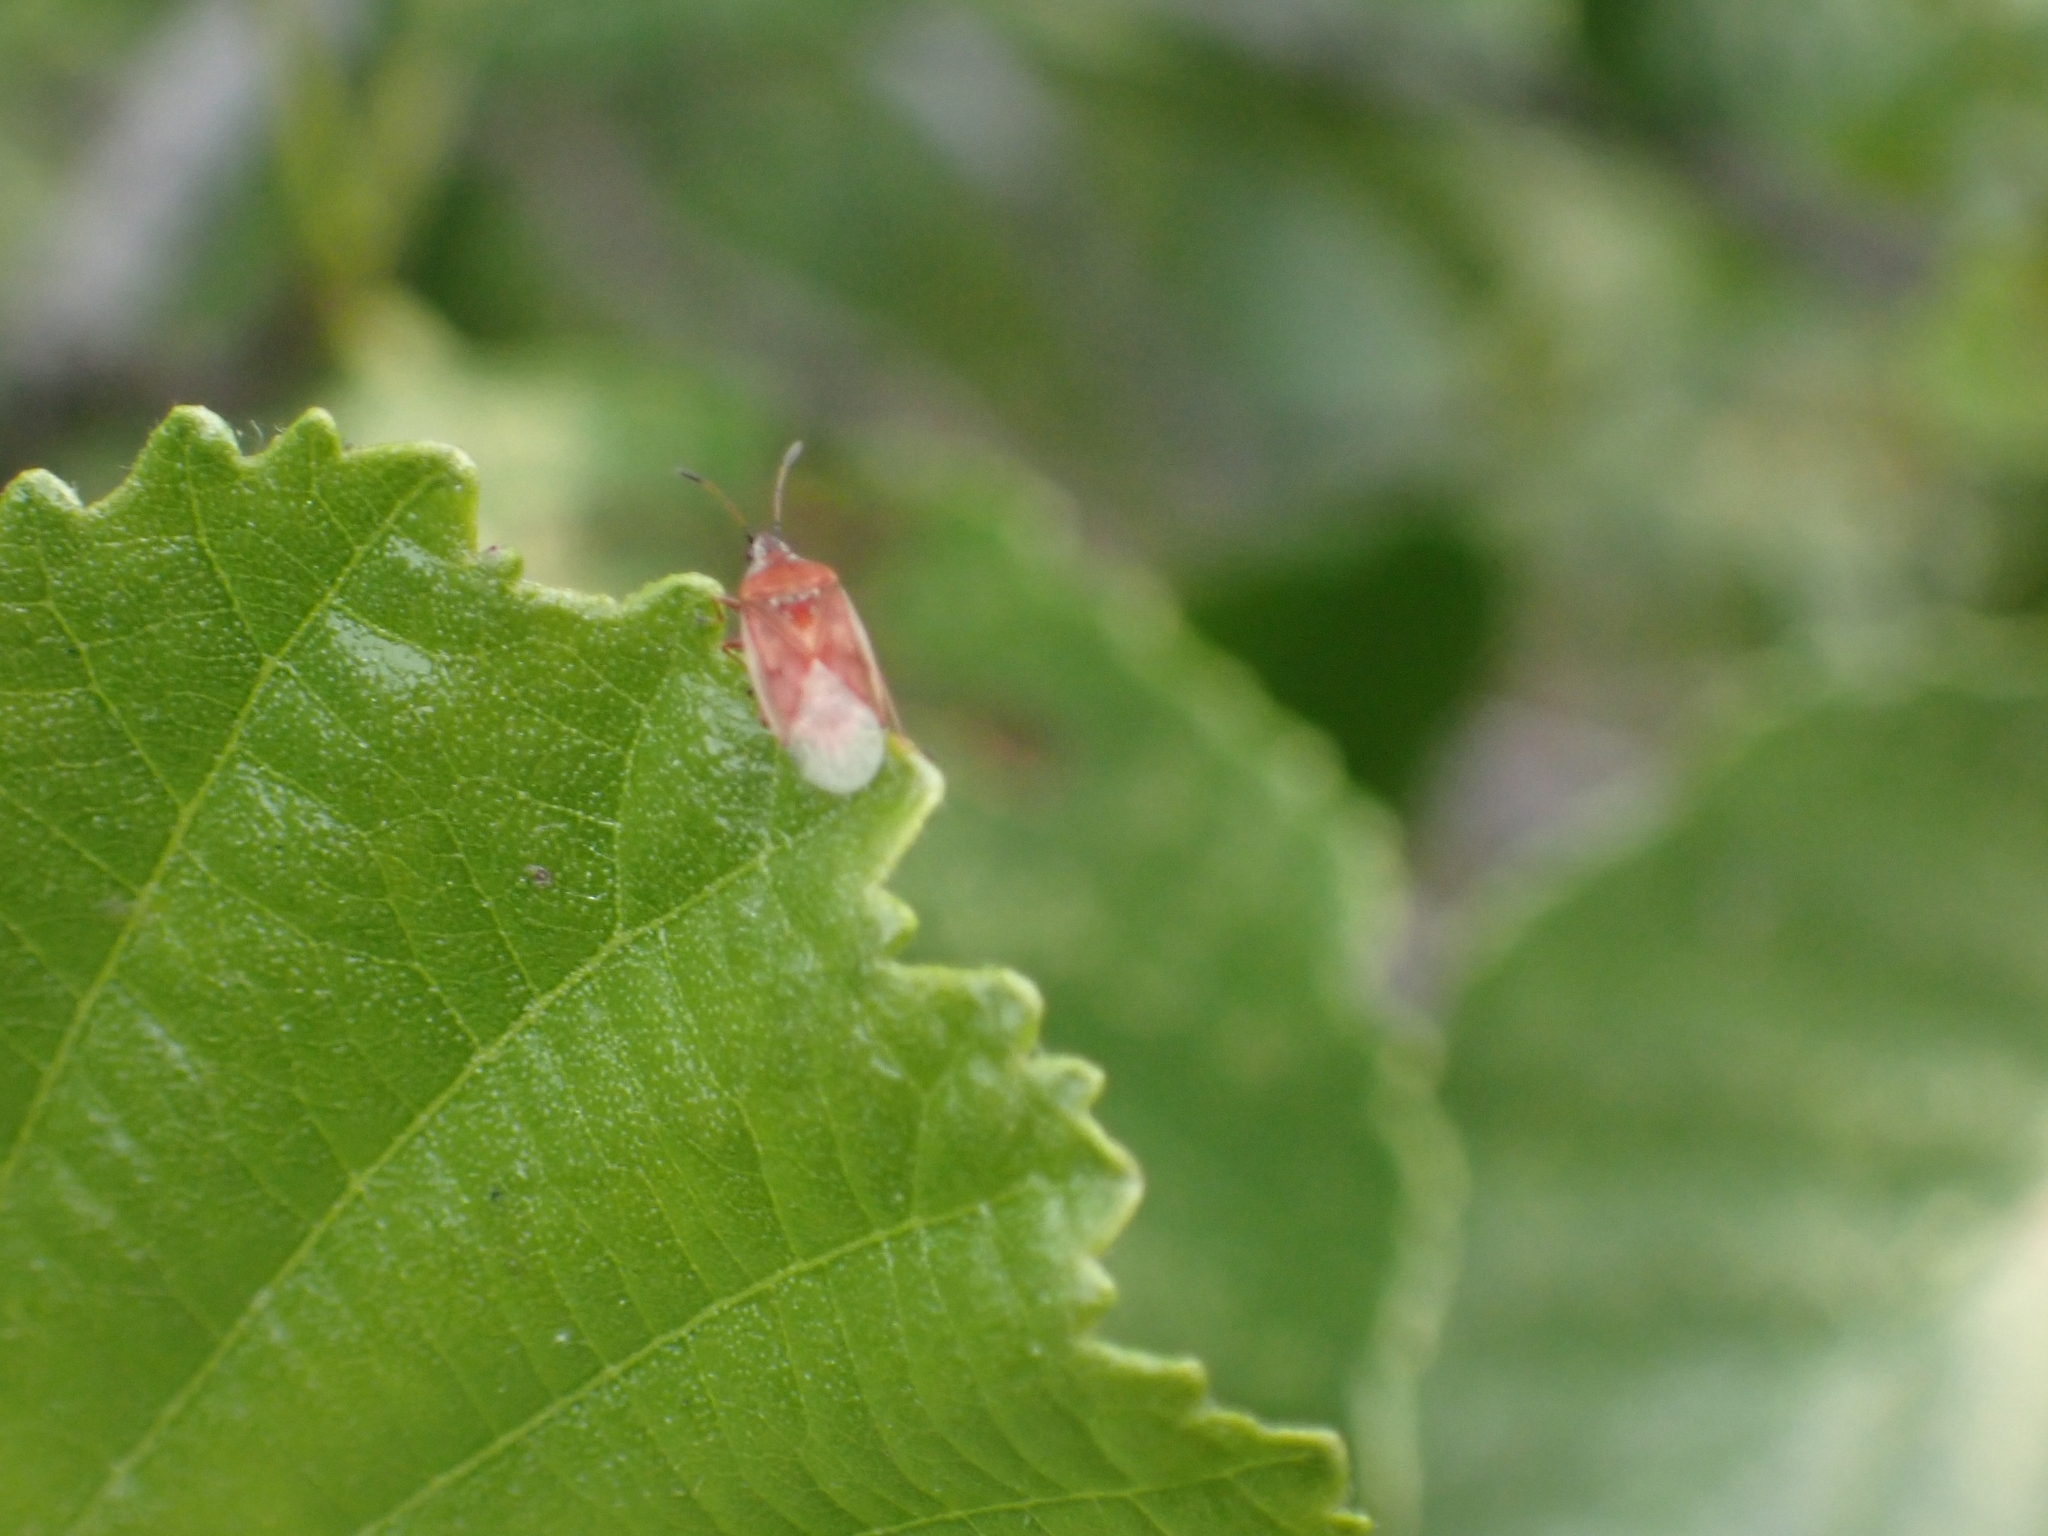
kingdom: Animalia
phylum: Arthropoda
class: Insecta
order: Hemiptera
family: Lygaeidae
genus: Kleidocerys
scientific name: Kleidocerys resedae
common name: Birch catkin bug
